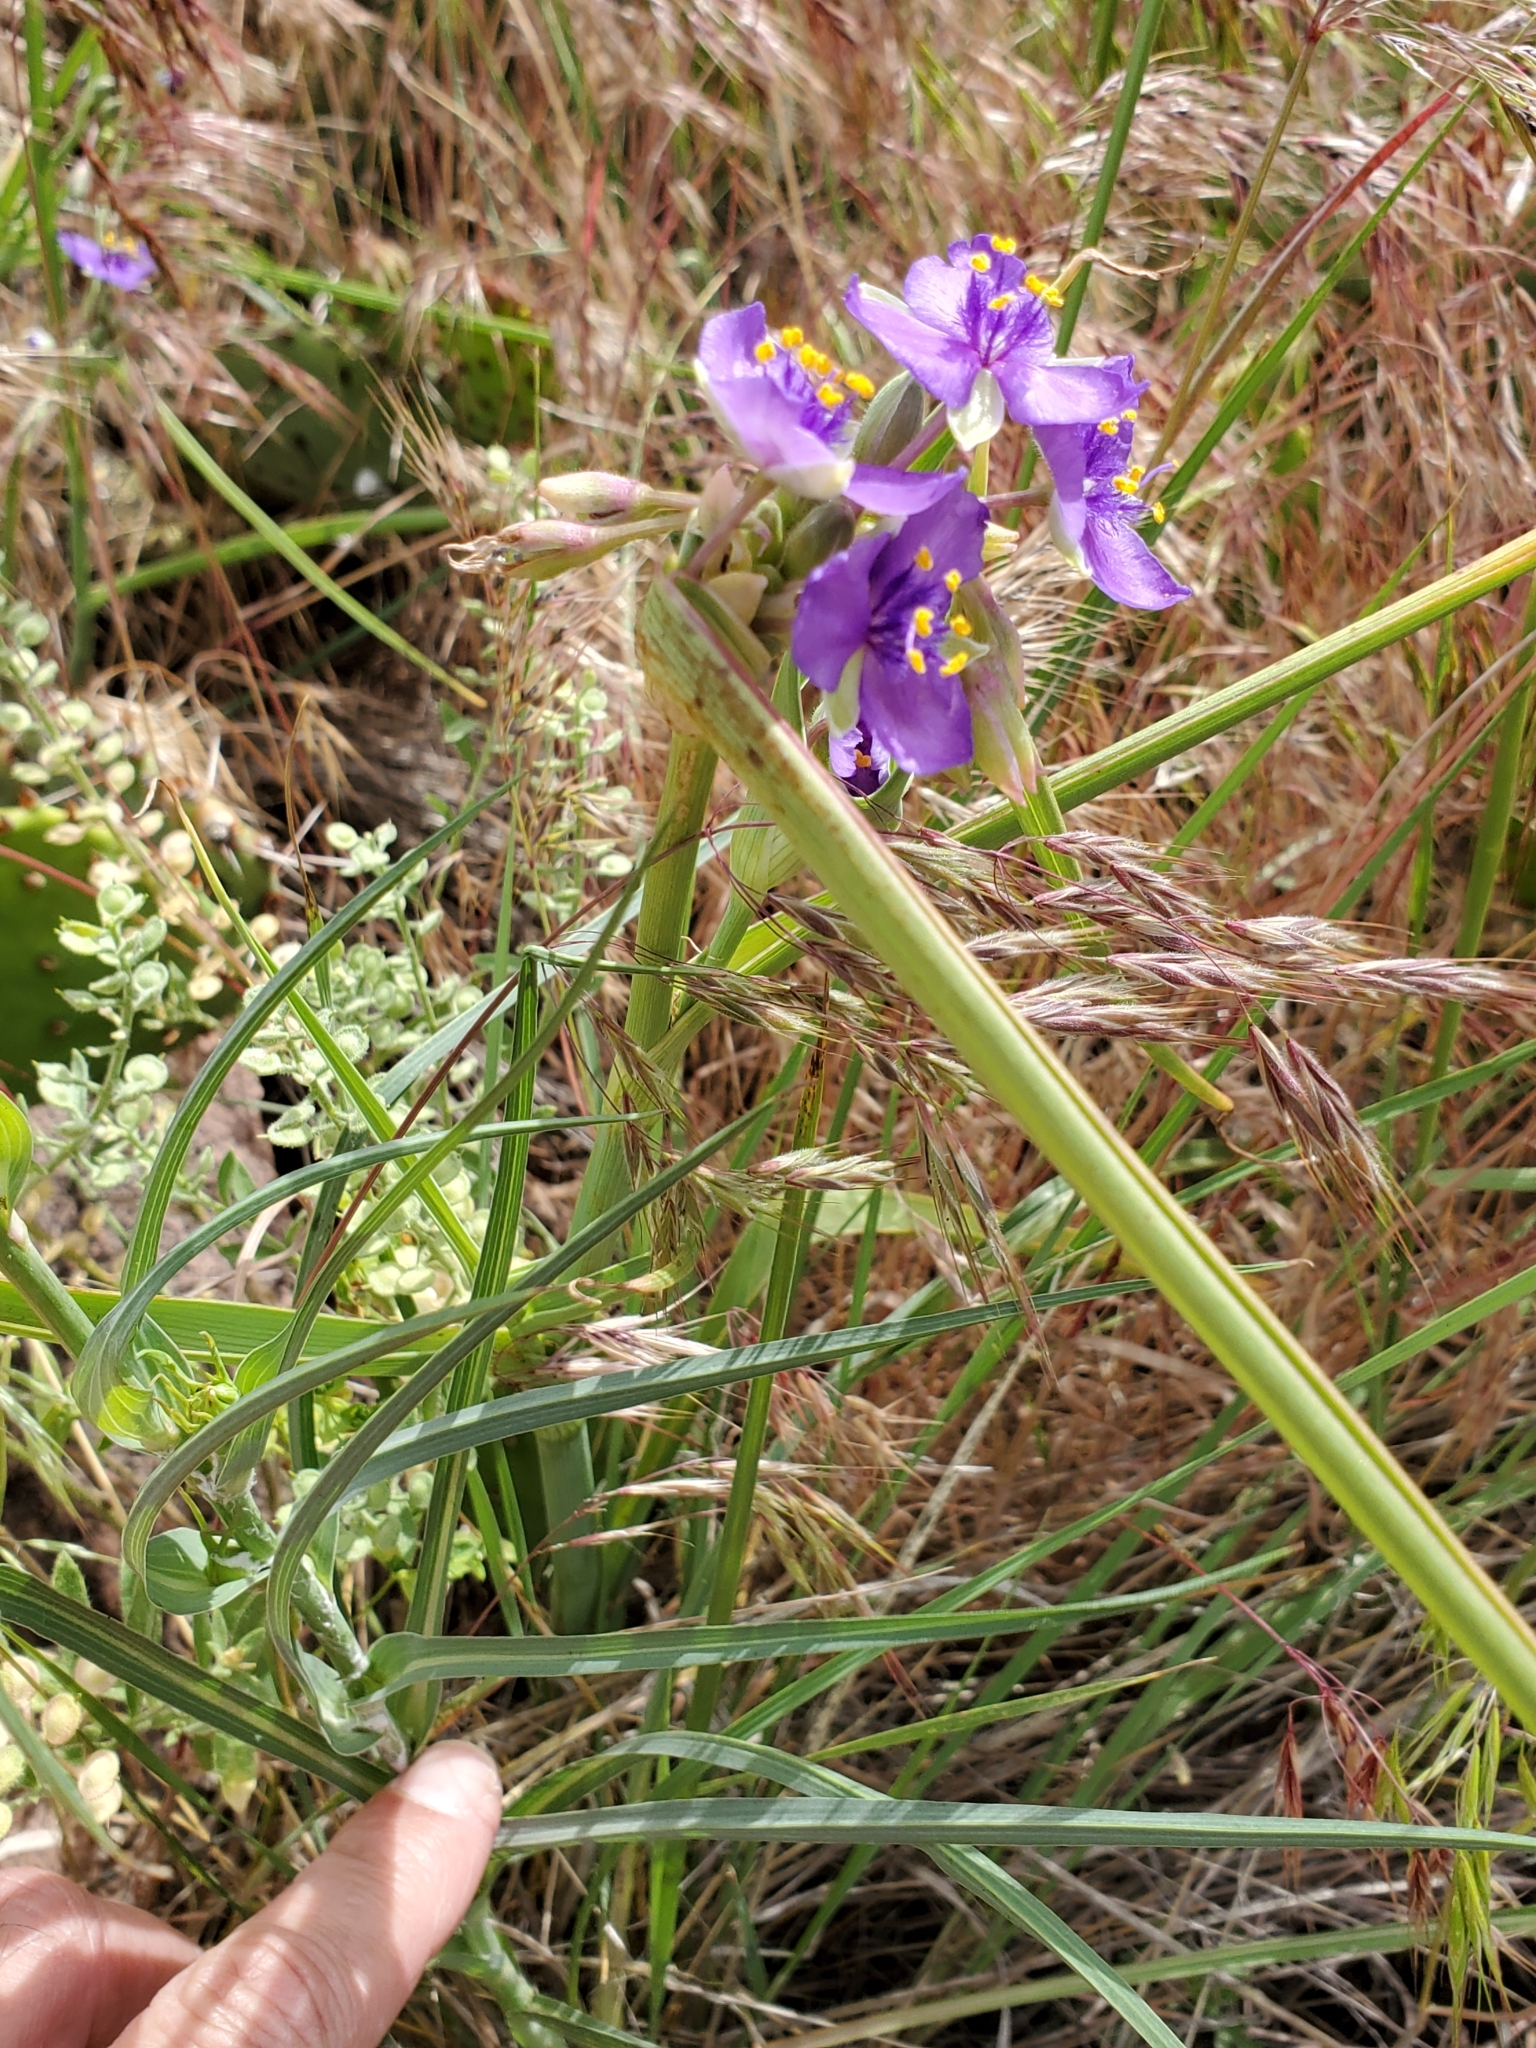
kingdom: Plantae
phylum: Tracheophyta
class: Liliopsida
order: Commelinales
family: Commelinaceae
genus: Tradescantia
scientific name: Tradescantia occidentalis
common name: Prairie spiderwort
